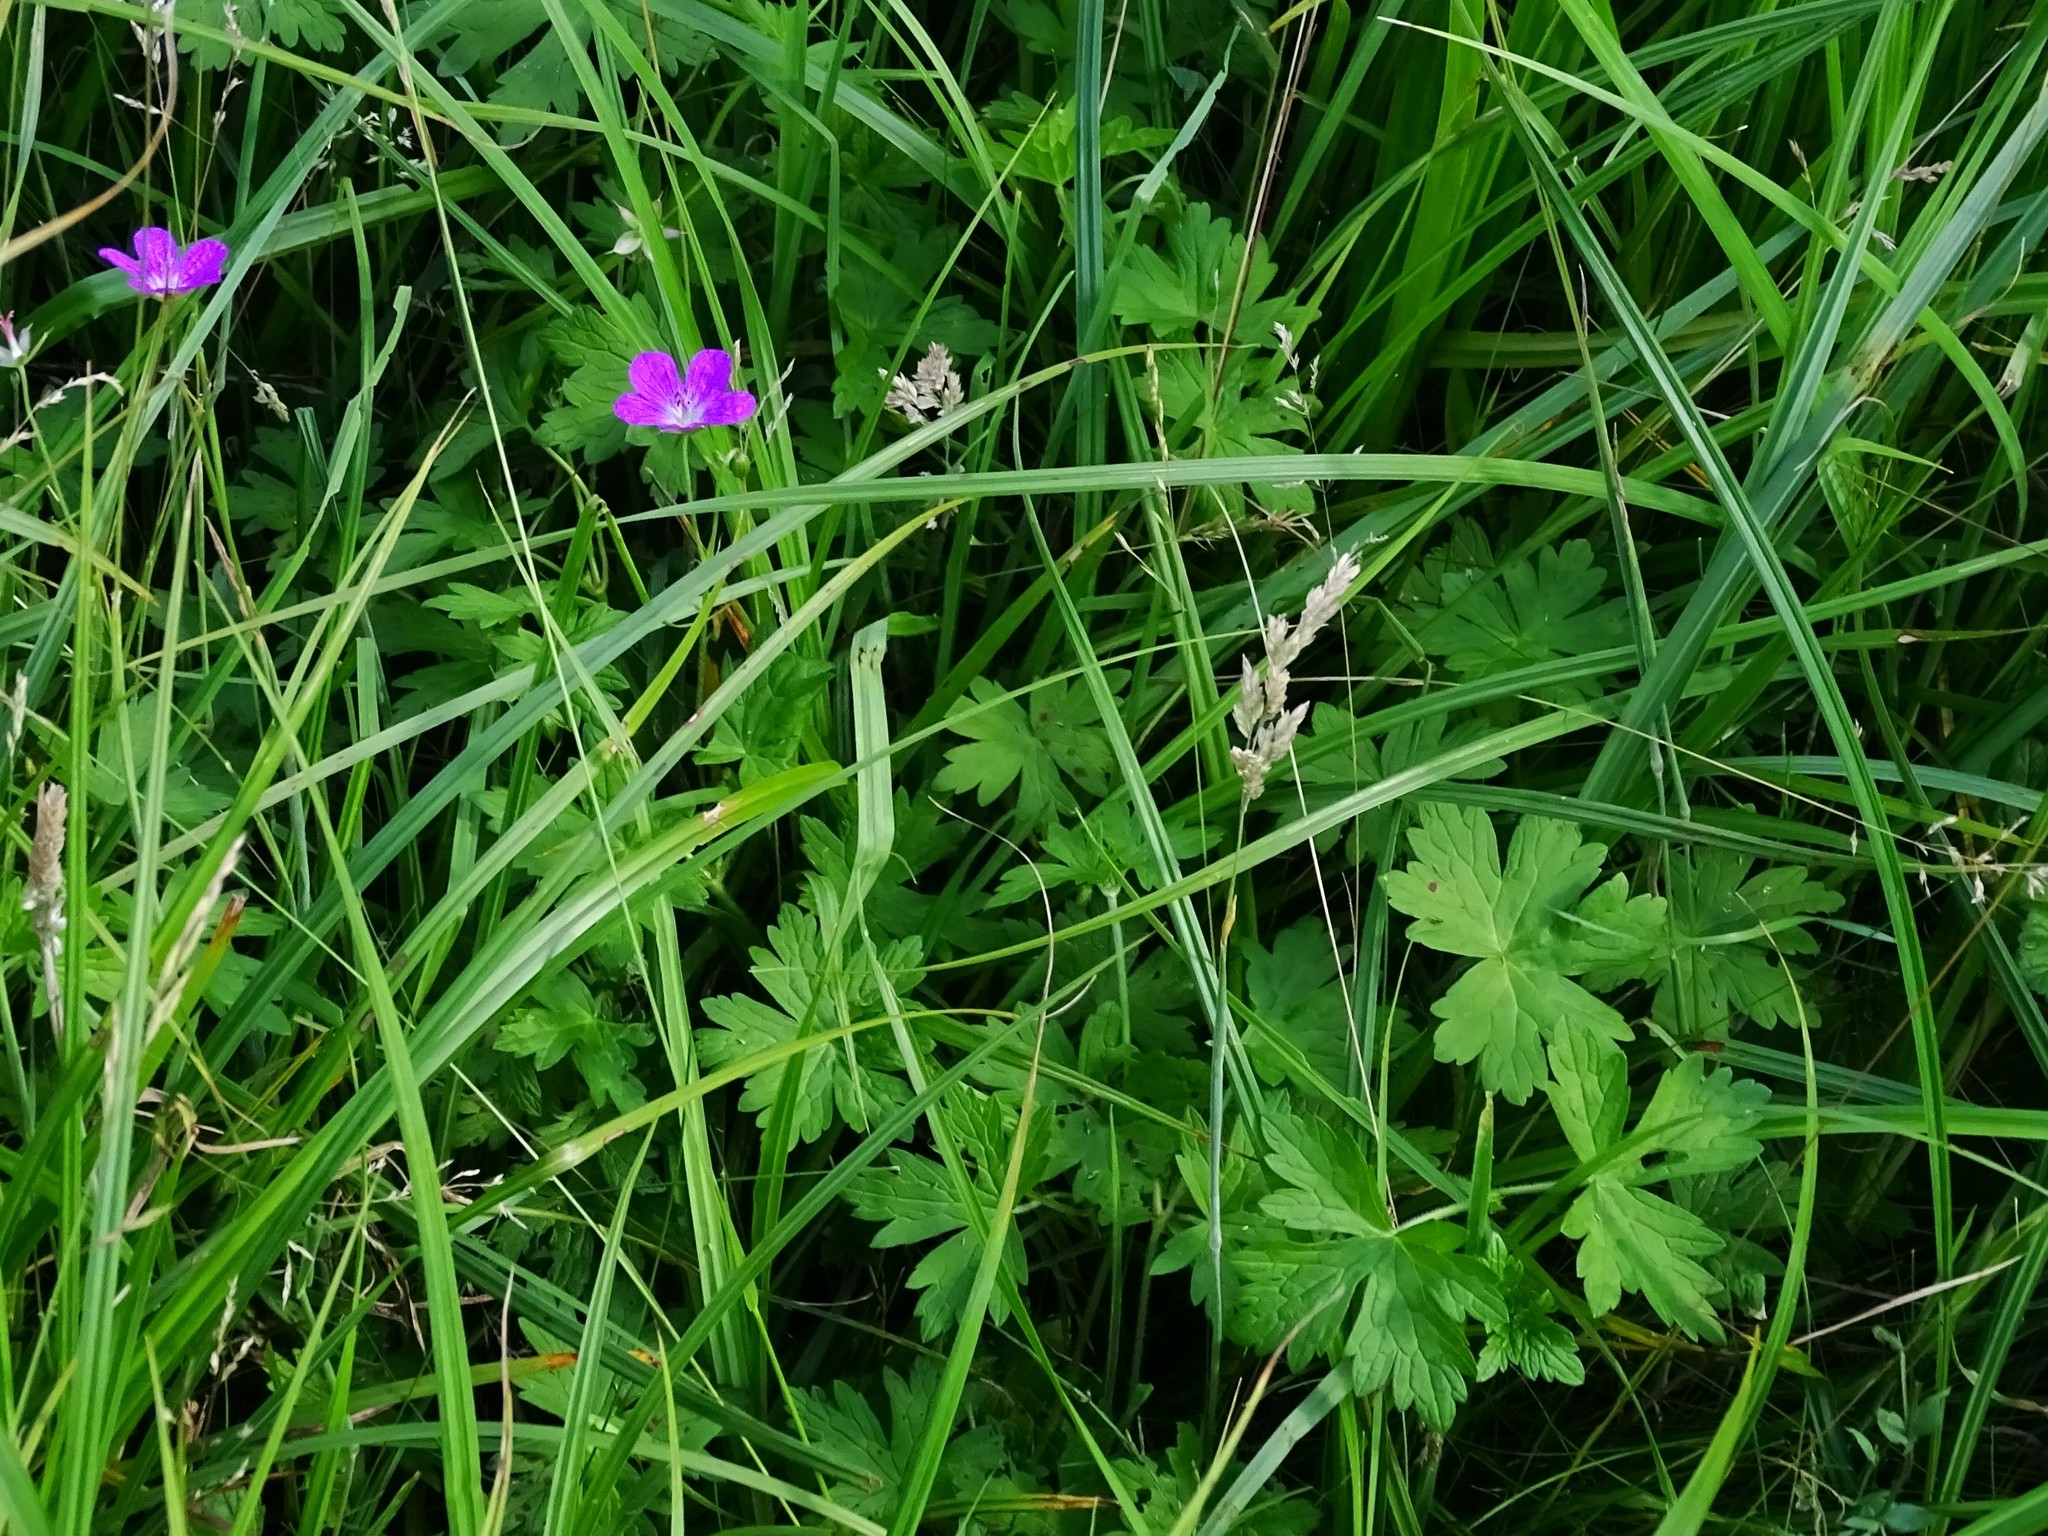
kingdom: Plantae
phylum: Tracheophyta
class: Magnoliopsida
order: Geraniales
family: Geraniaceae
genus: Geranium
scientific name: Geranium palustre
